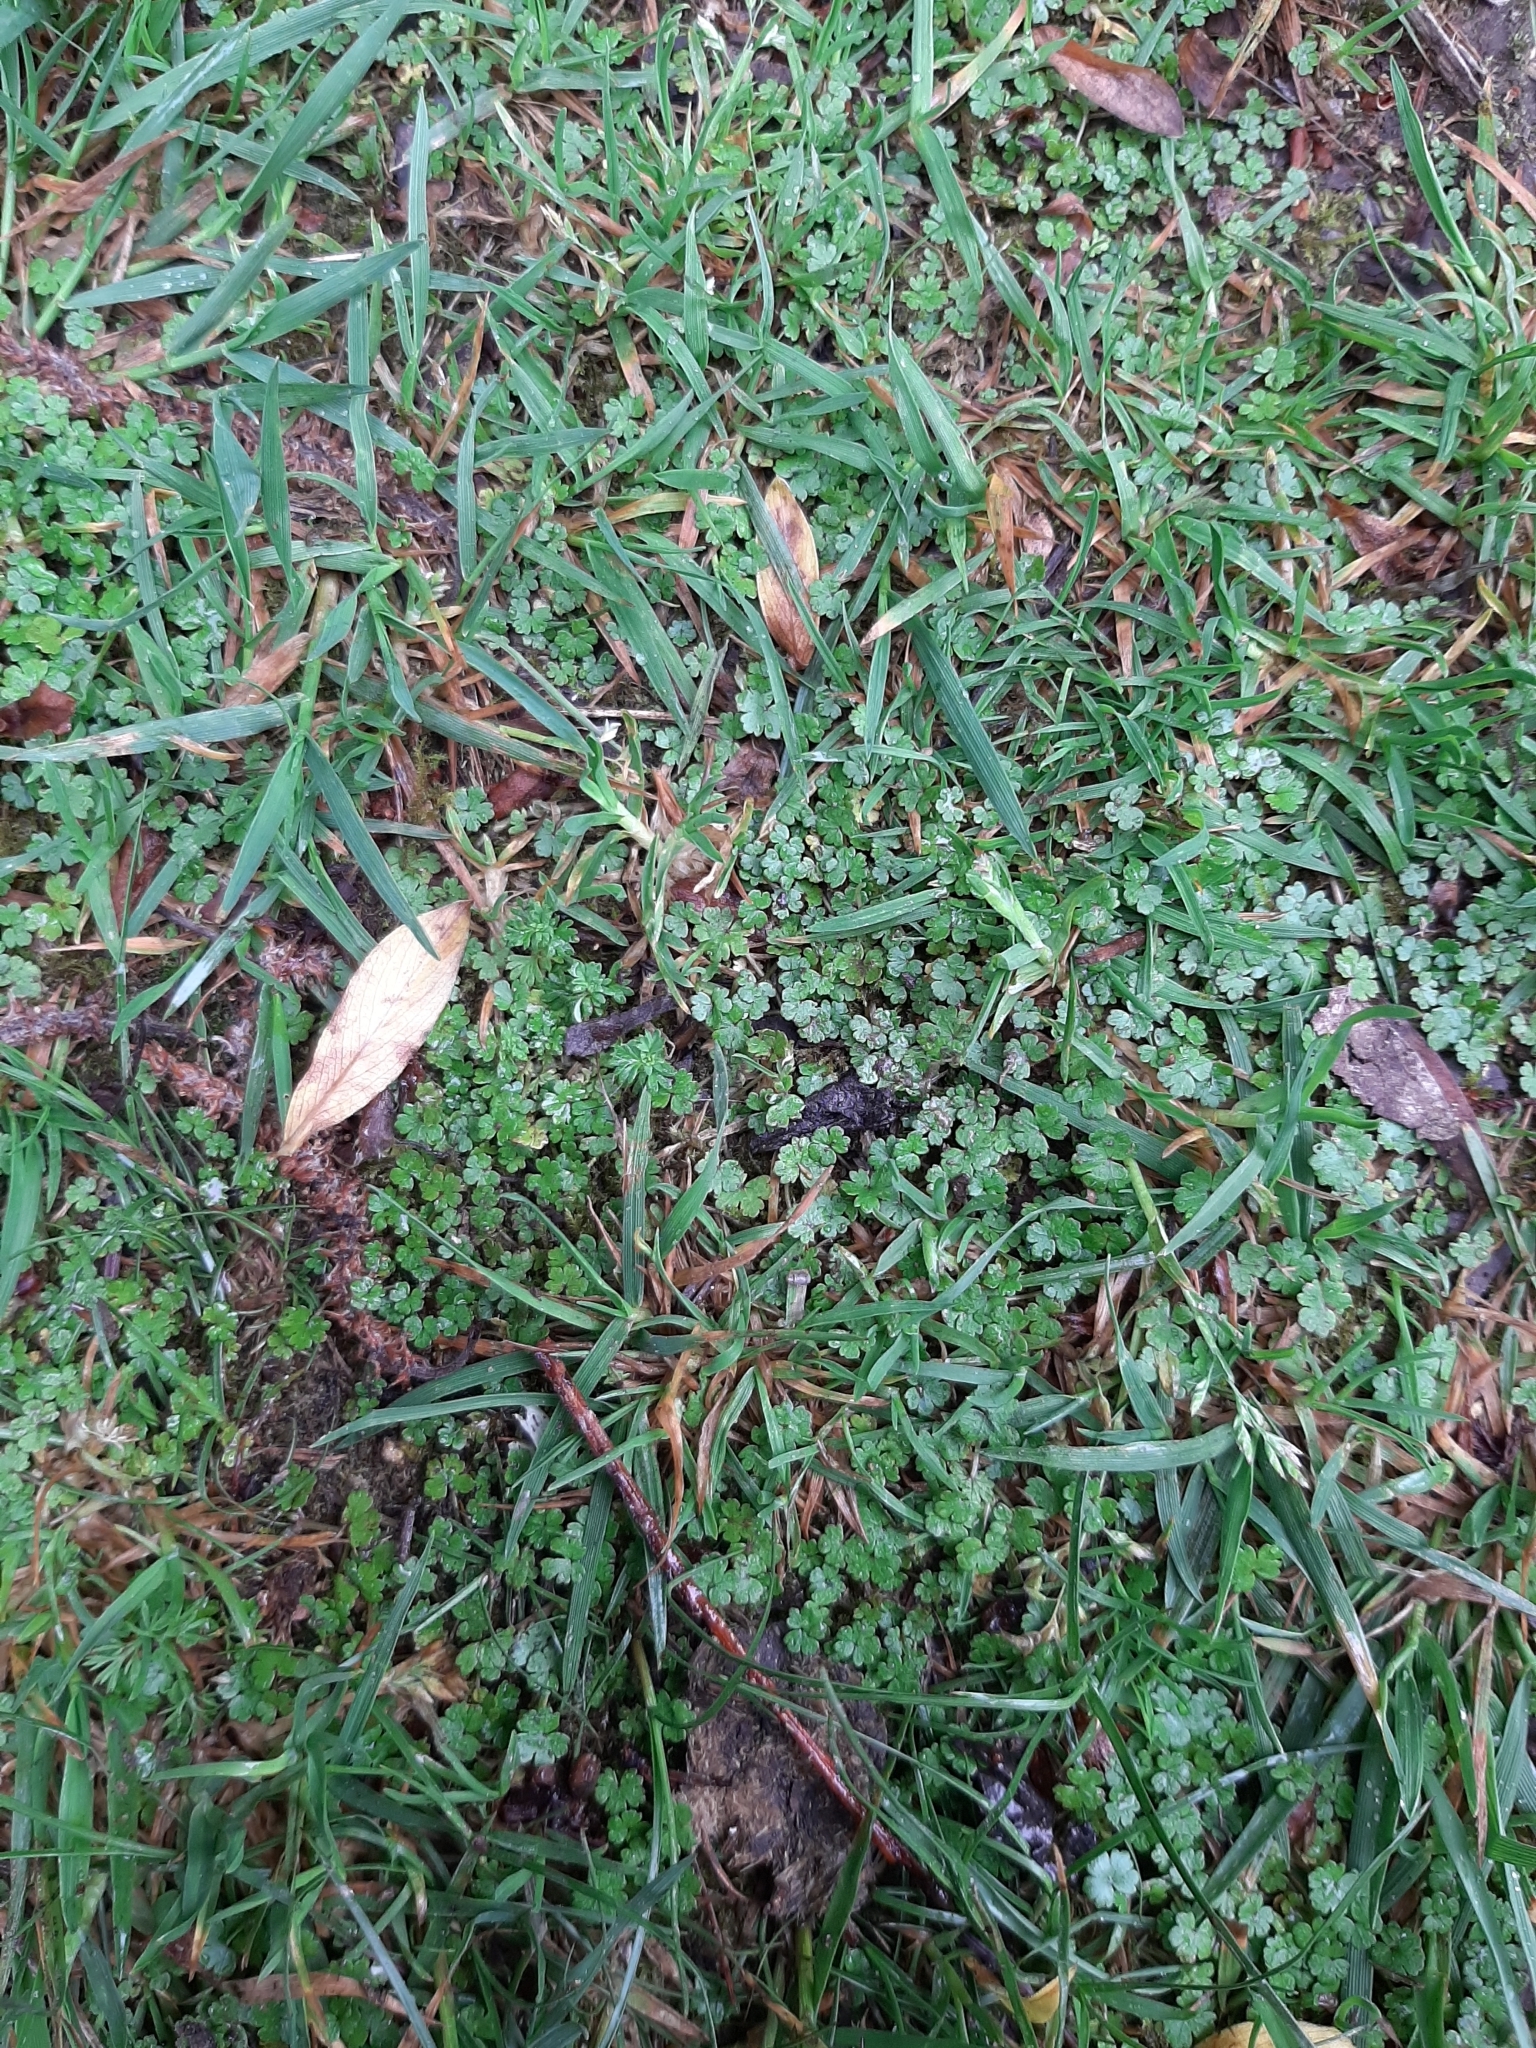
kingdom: Plantae
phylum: Tracheophyta
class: Magnoliopsida
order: Apiales
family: Araliaceae
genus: Hydrocotyle
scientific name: Hydrocotyle microphylla
